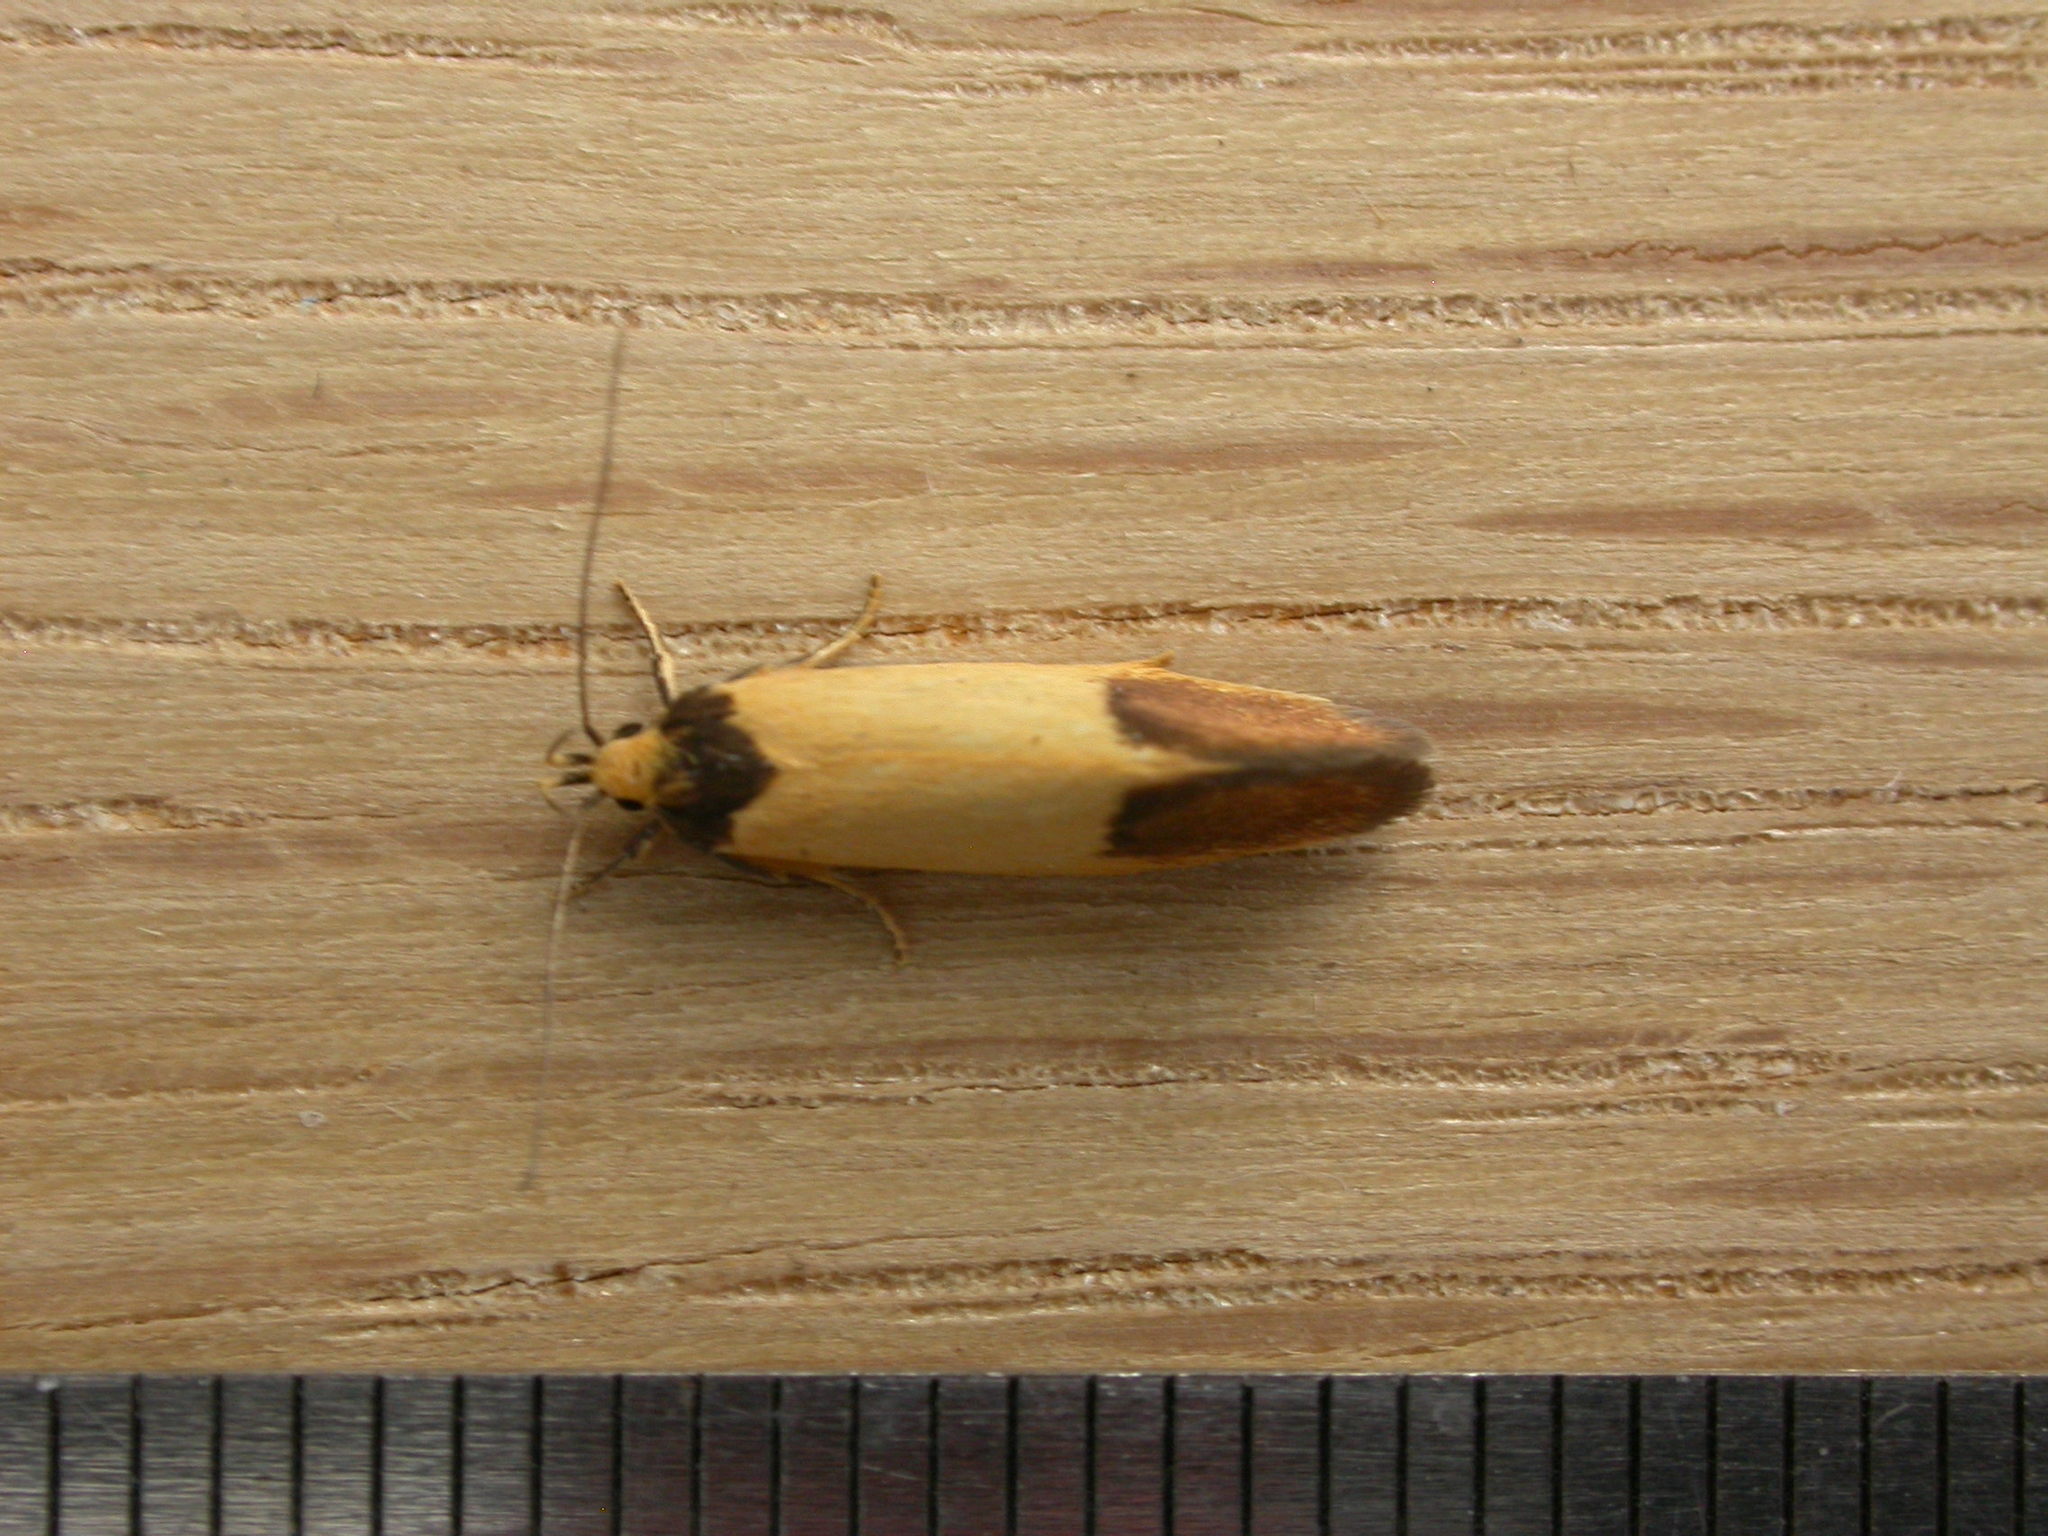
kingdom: Animalia
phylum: Arthropoda
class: Insecta
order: Lepidoptera
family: Oecophoridae
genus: Merocroca
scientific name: Merocroca automima
